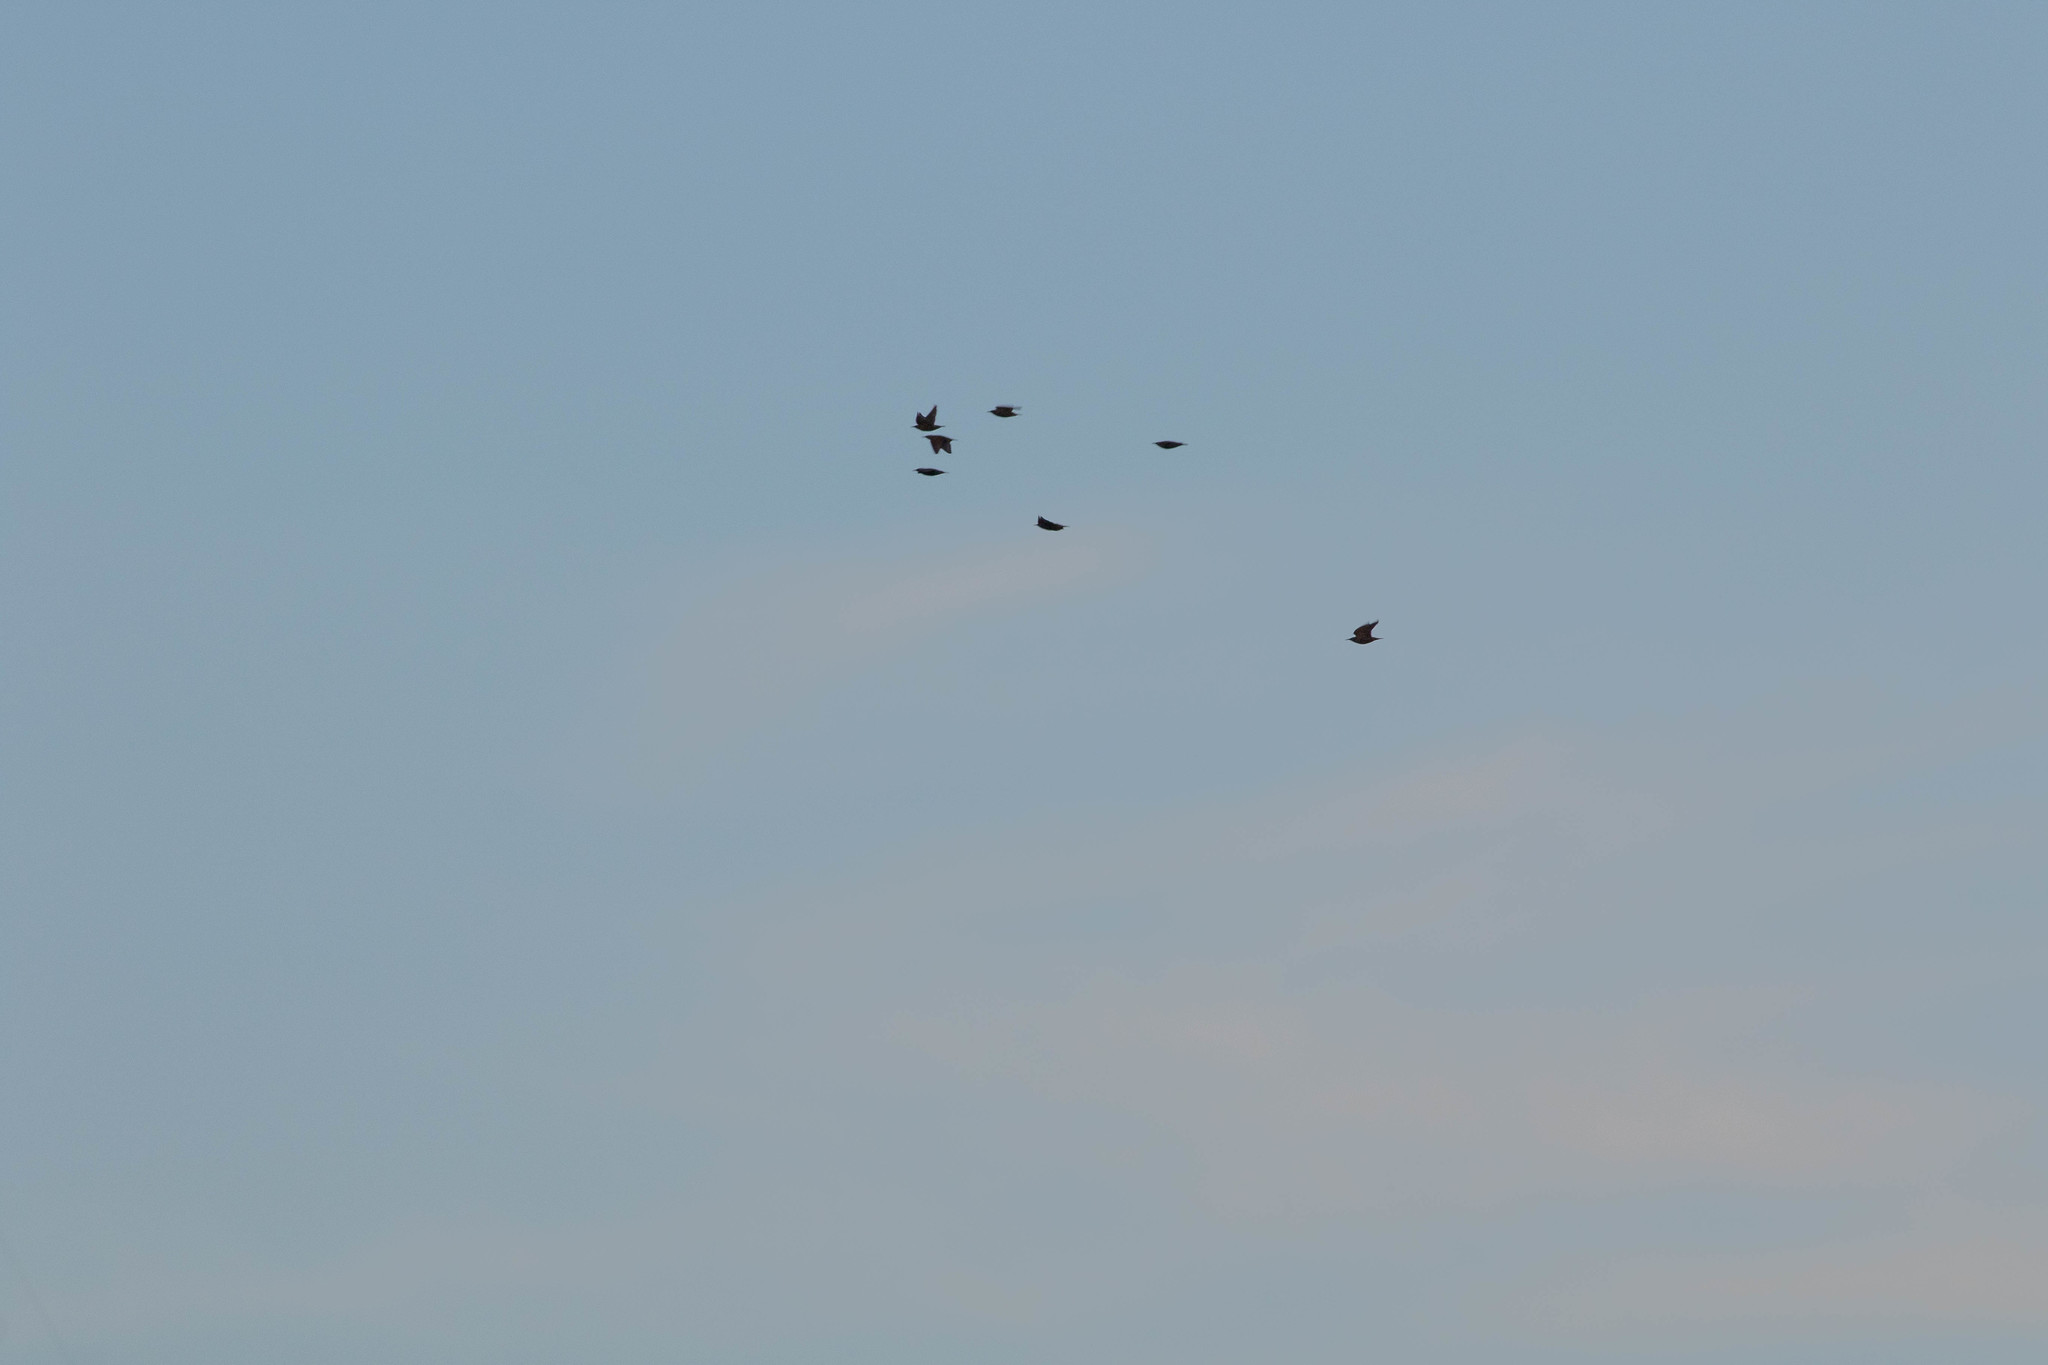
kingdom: Animalia
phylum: Chordata
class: Aves
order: Passeriformes
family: Sturnidae
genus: Sturnus
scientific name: Sturnus vulgaris
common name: Common starling
